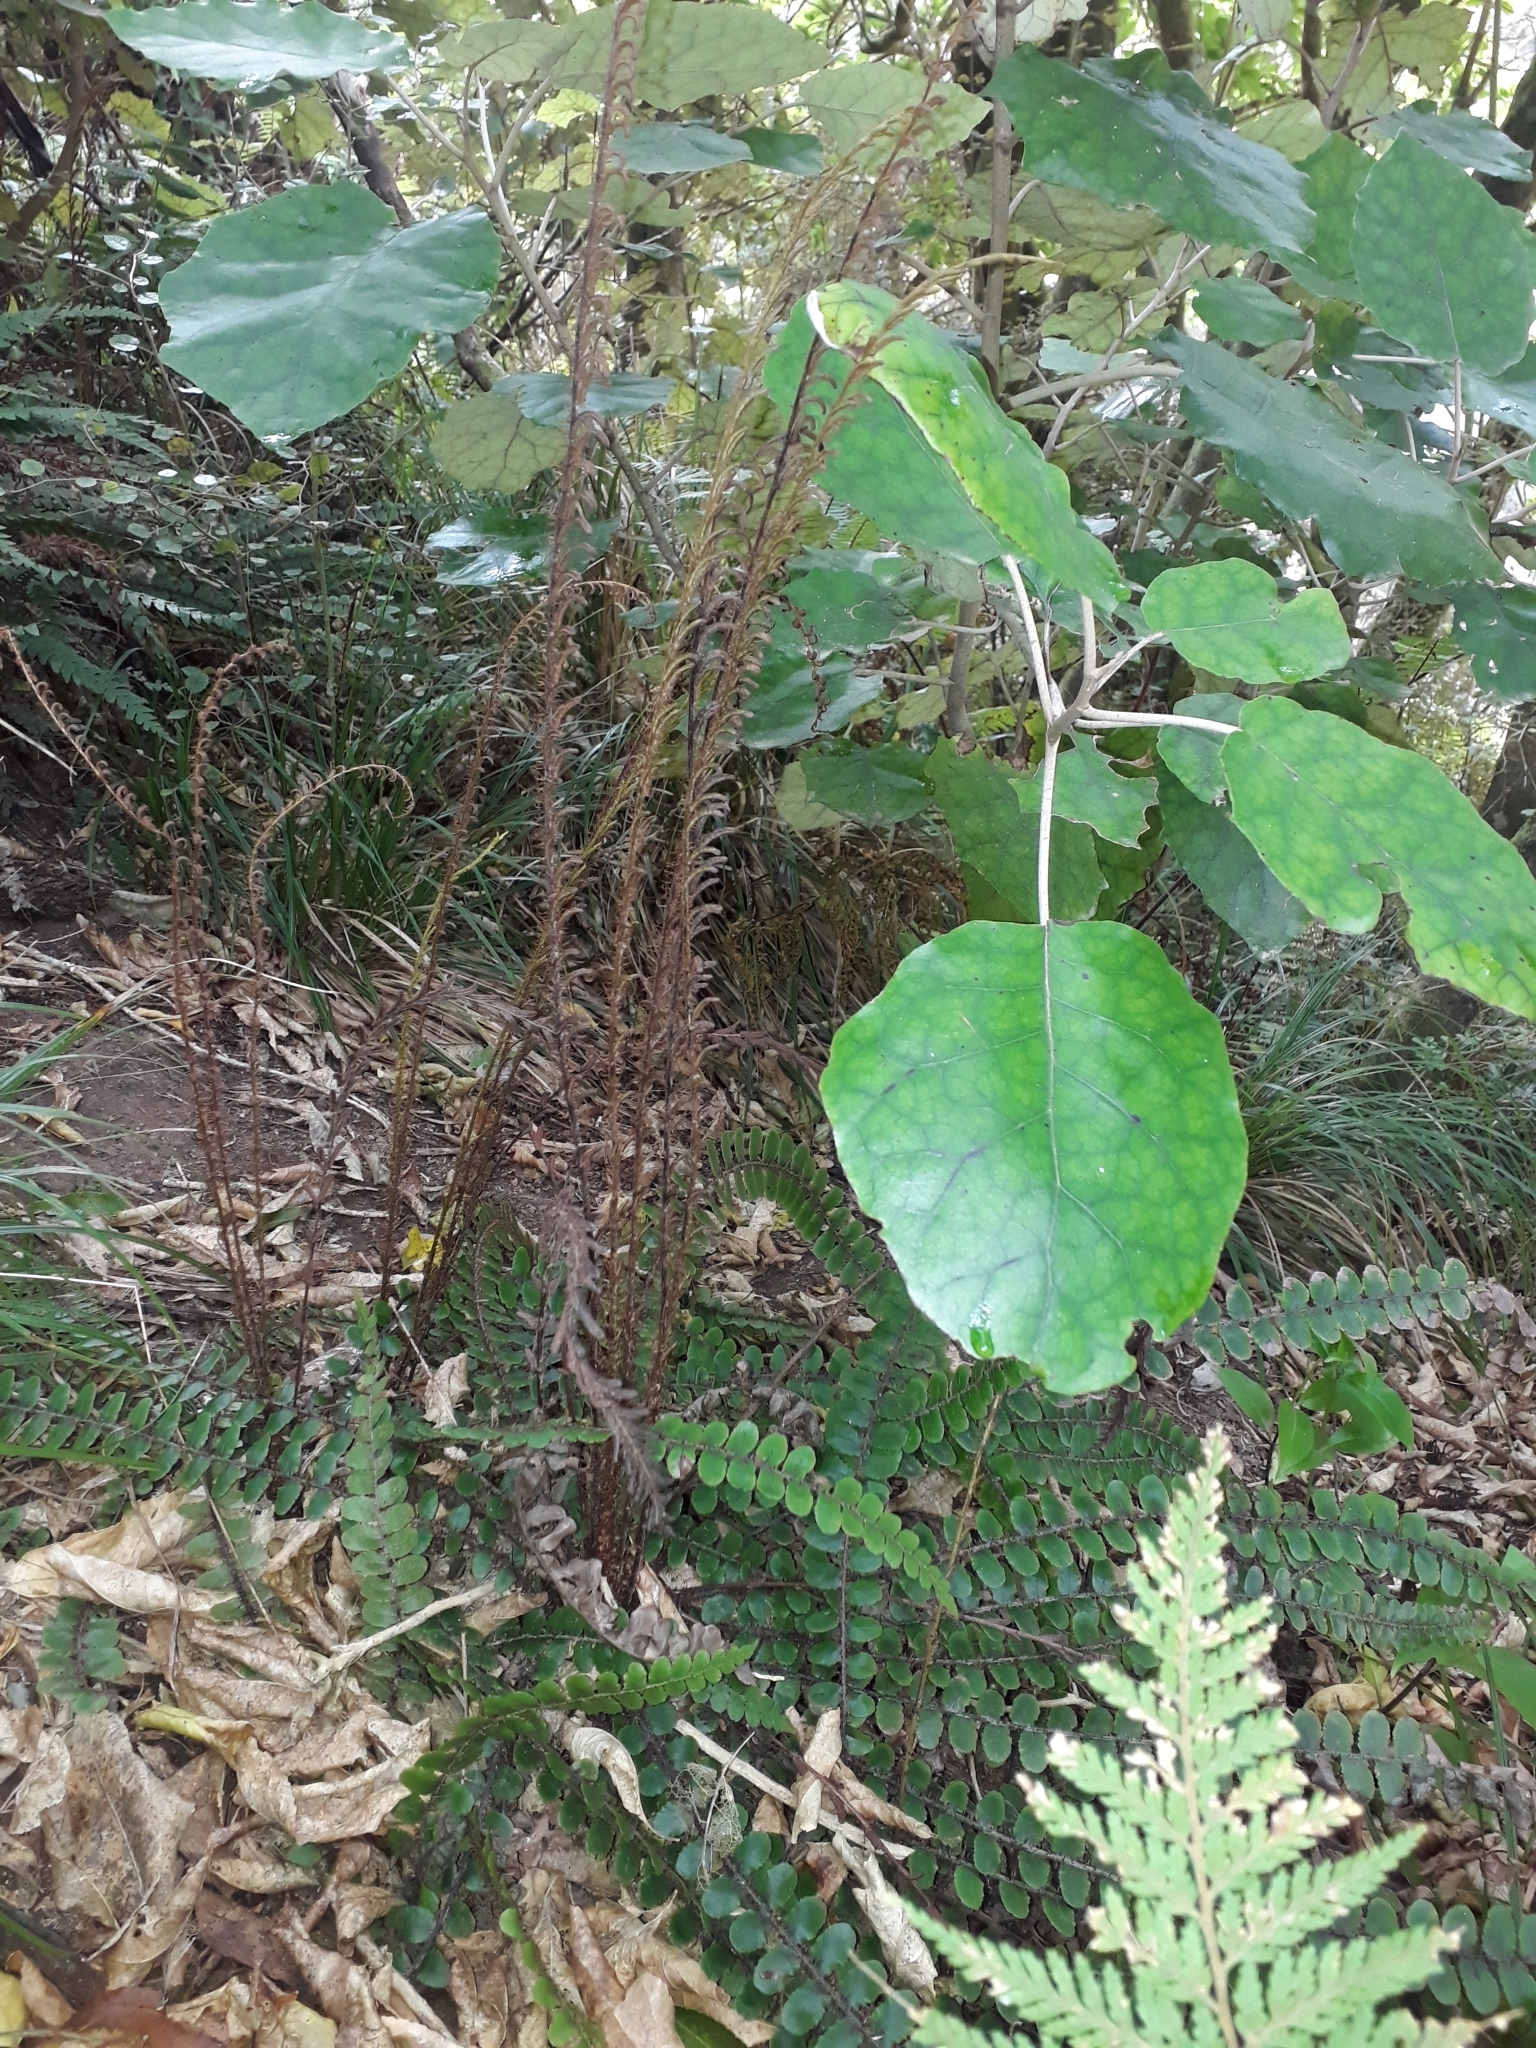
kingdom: Plantae
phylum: Tracheophyta
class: Polypodiopsida
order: Polypodiales
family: Blechnaceae
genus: Cranfillia
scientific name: Cranfillia fluviatilis
